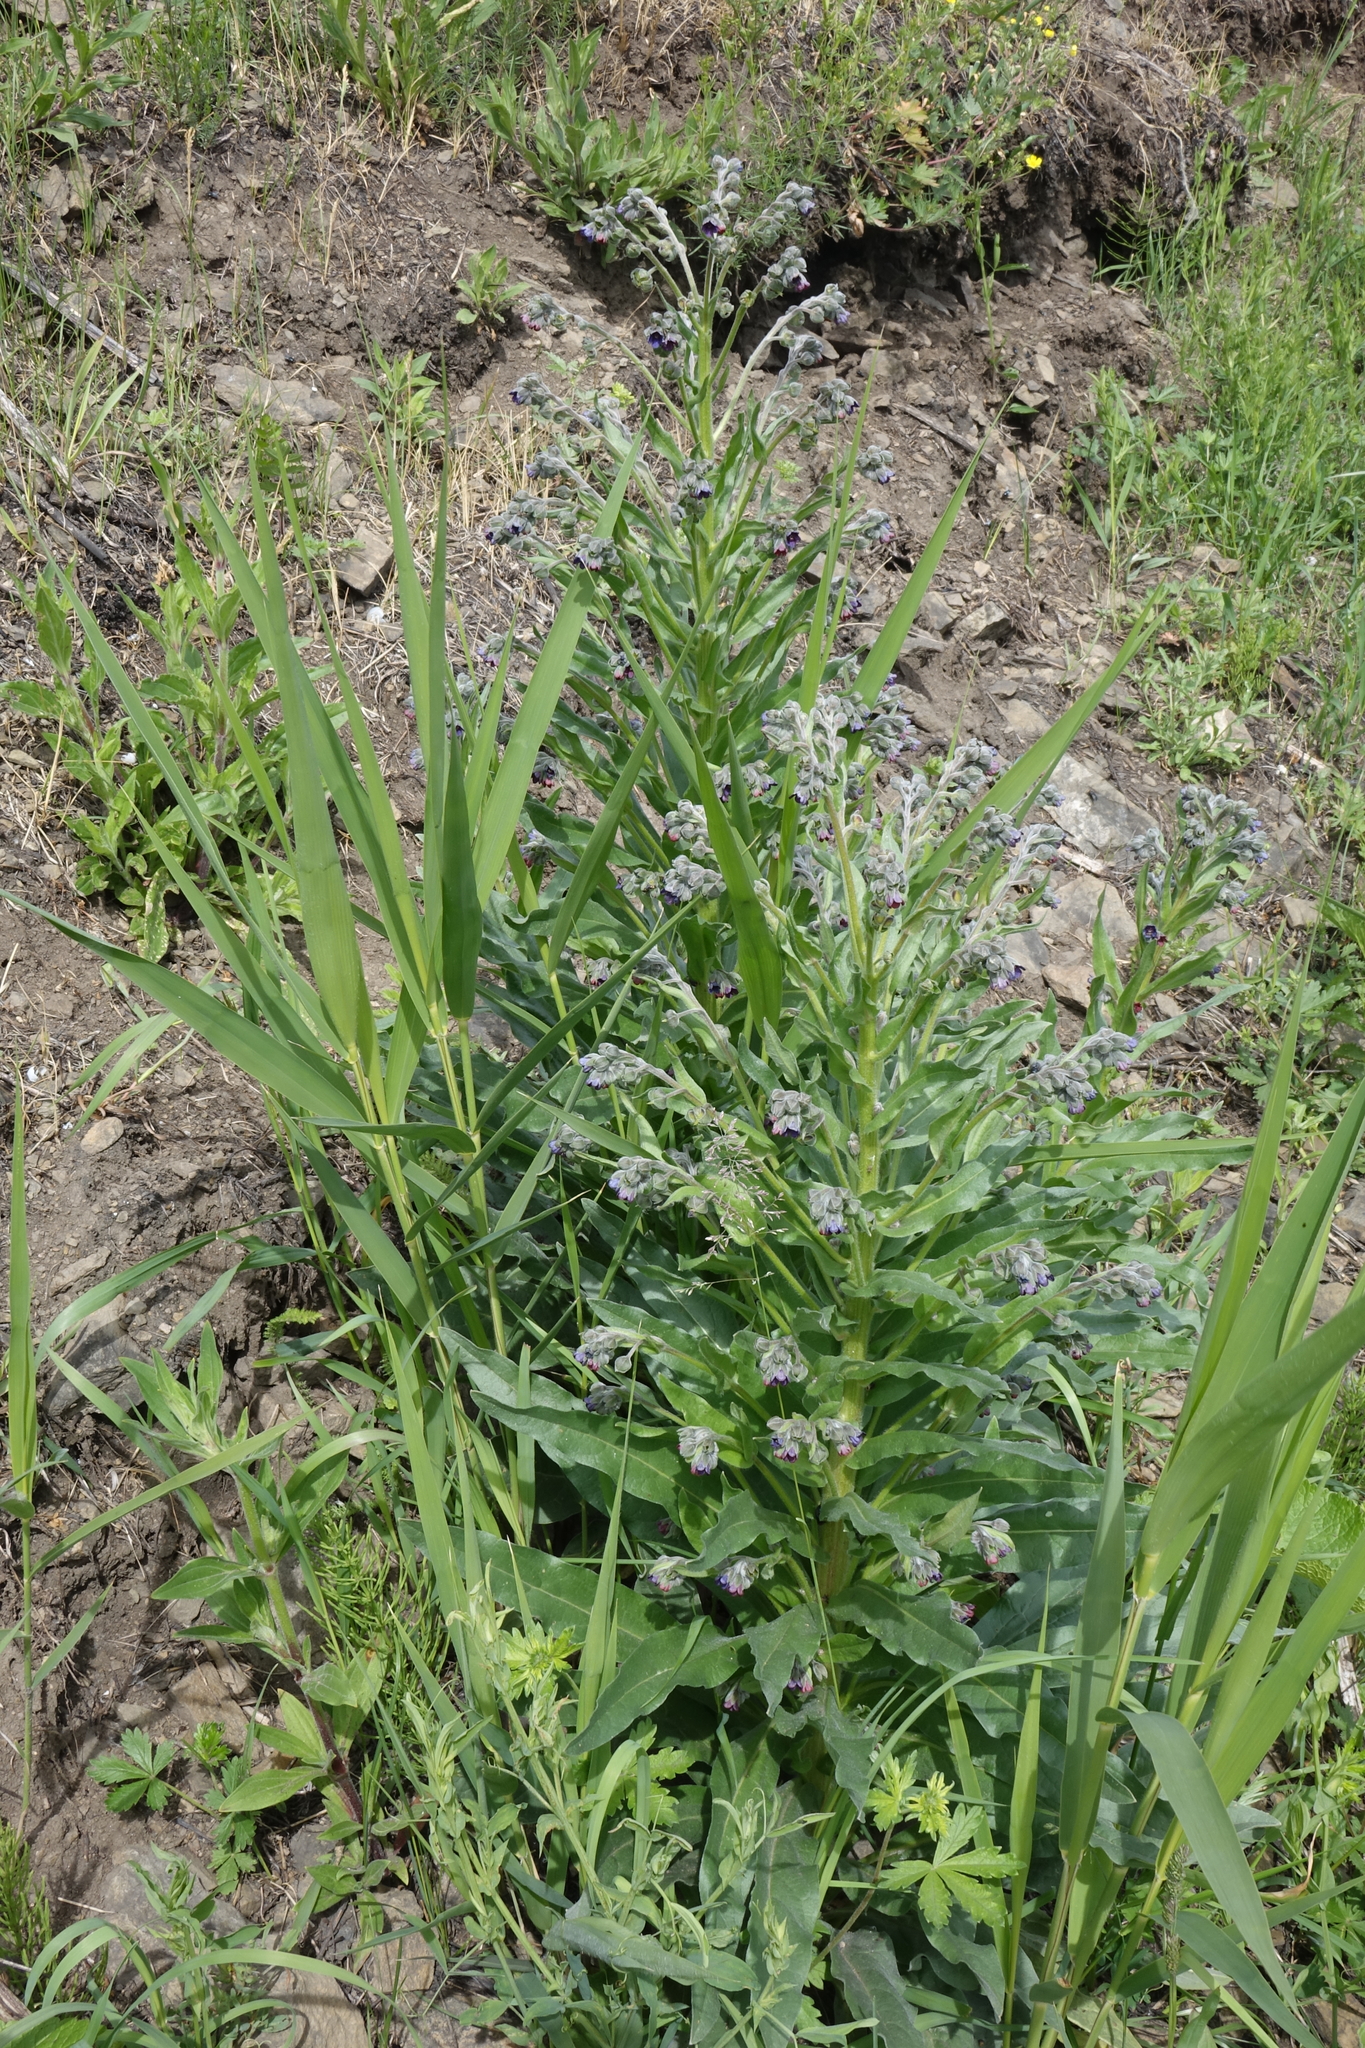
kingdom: Plantae
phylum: Tracheophyta
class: Magnoliopsida
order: Boraginales
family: Boraginaceae
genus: Cynoglossum
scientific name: Cynoglossum officinale
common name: Hound's-tongue
